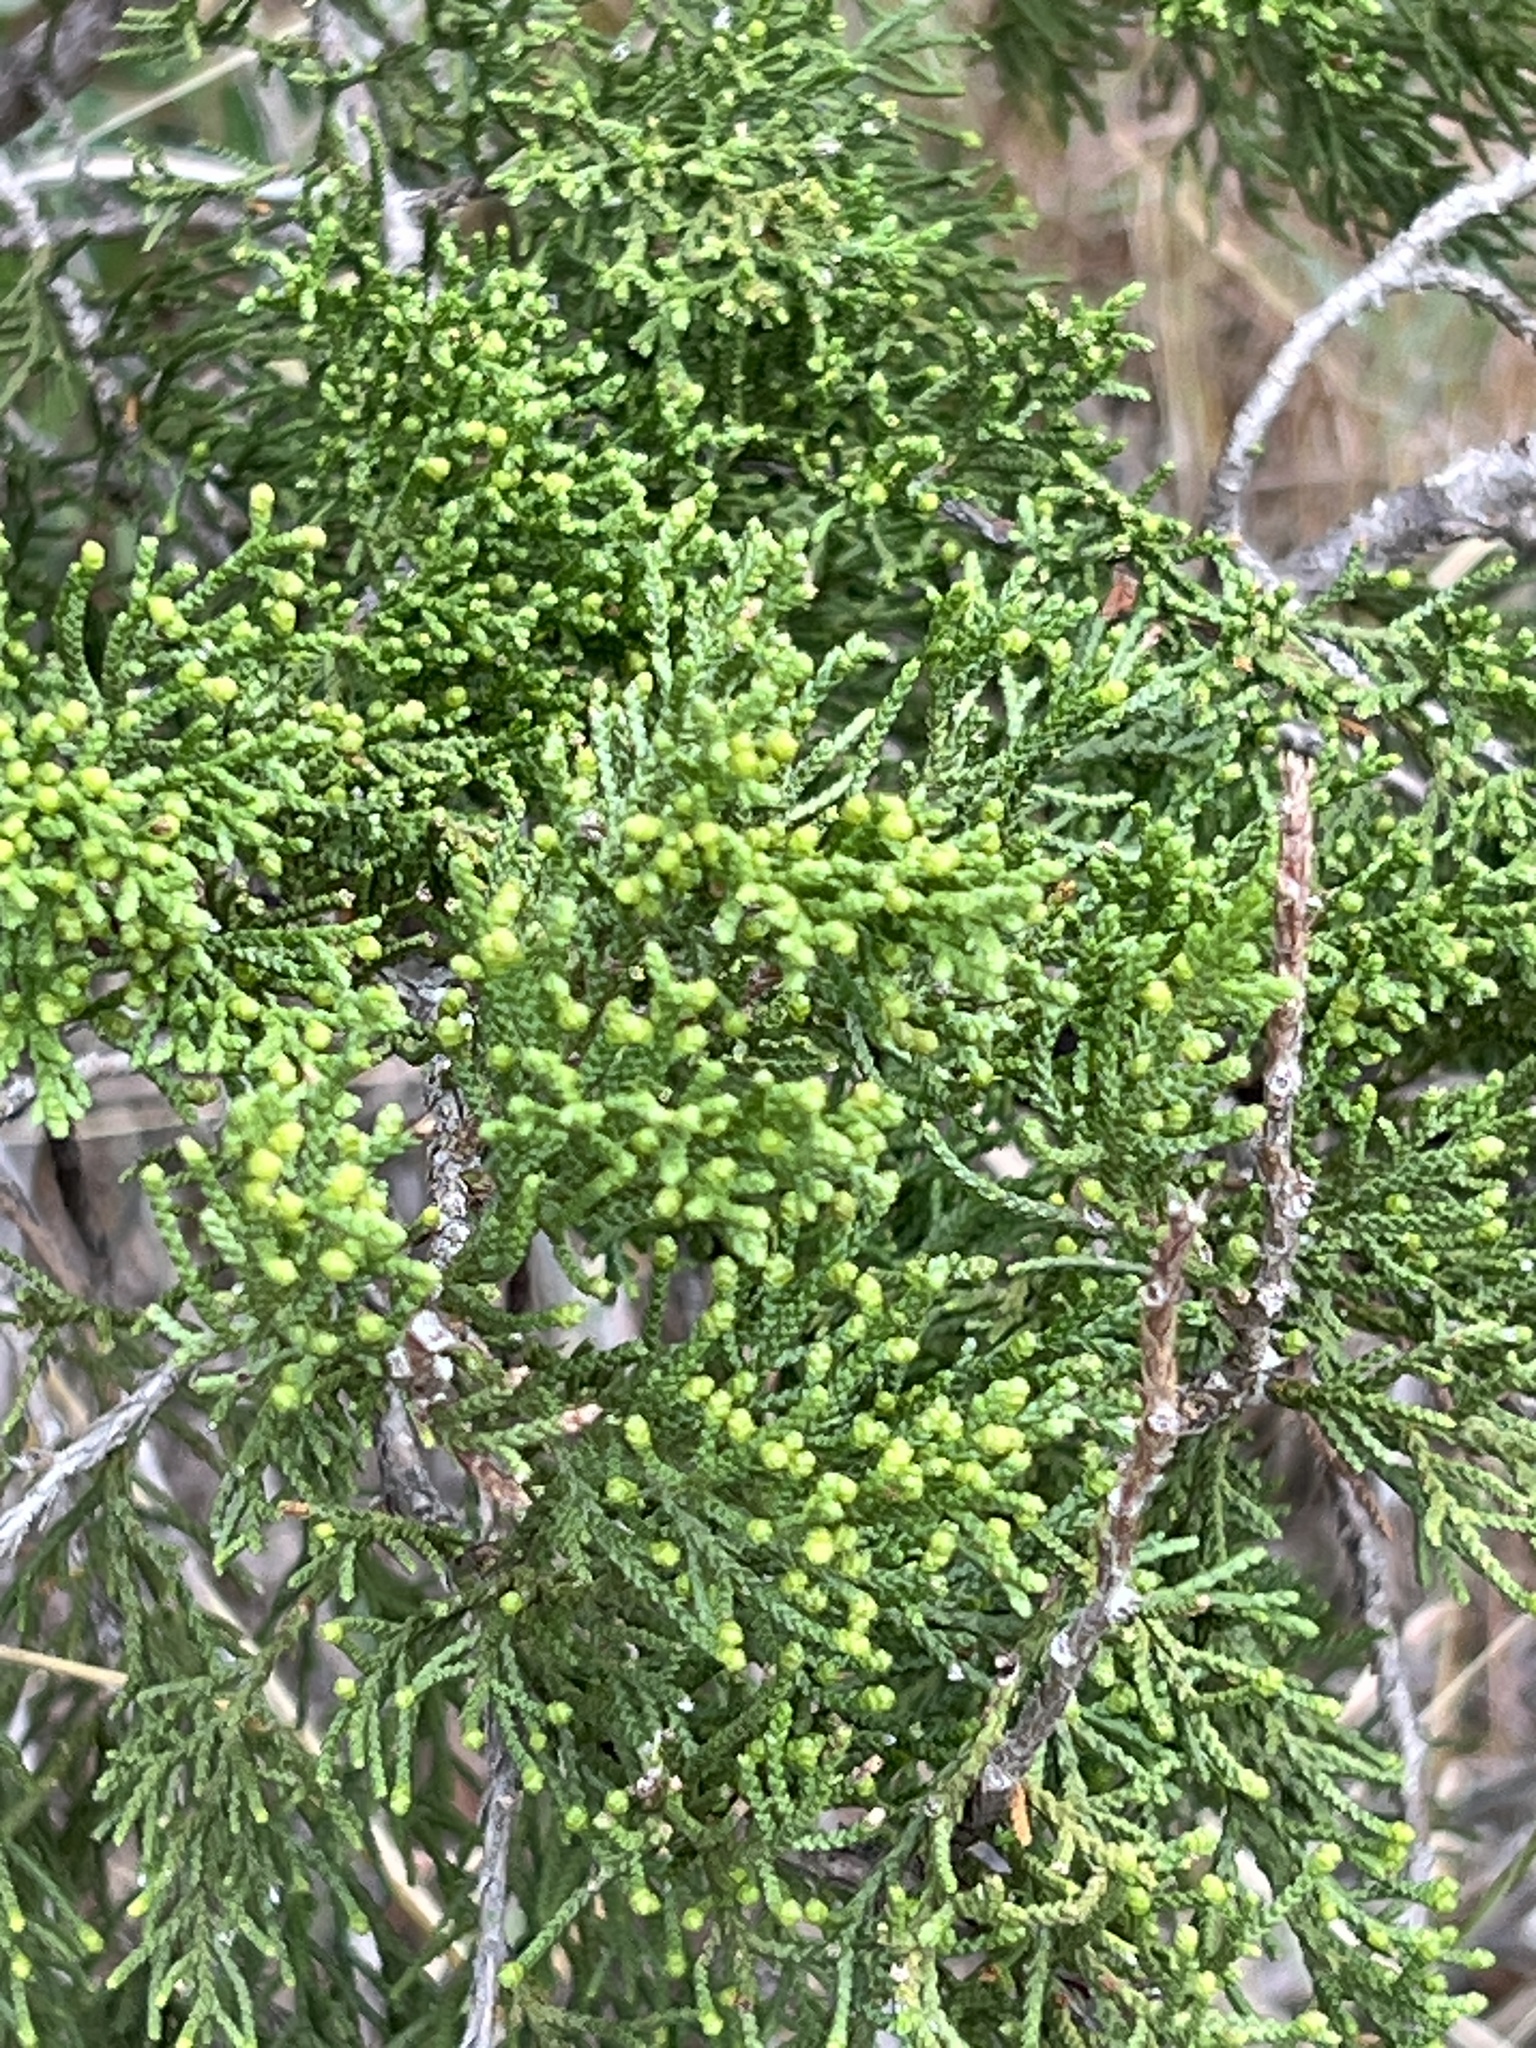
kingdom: Plantae
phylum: Tracheophyta
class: Pinopsida
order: Pinales
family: Cupressaceae
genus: Juniperus
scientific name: Juniperus ashei
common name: Mexican juniper
